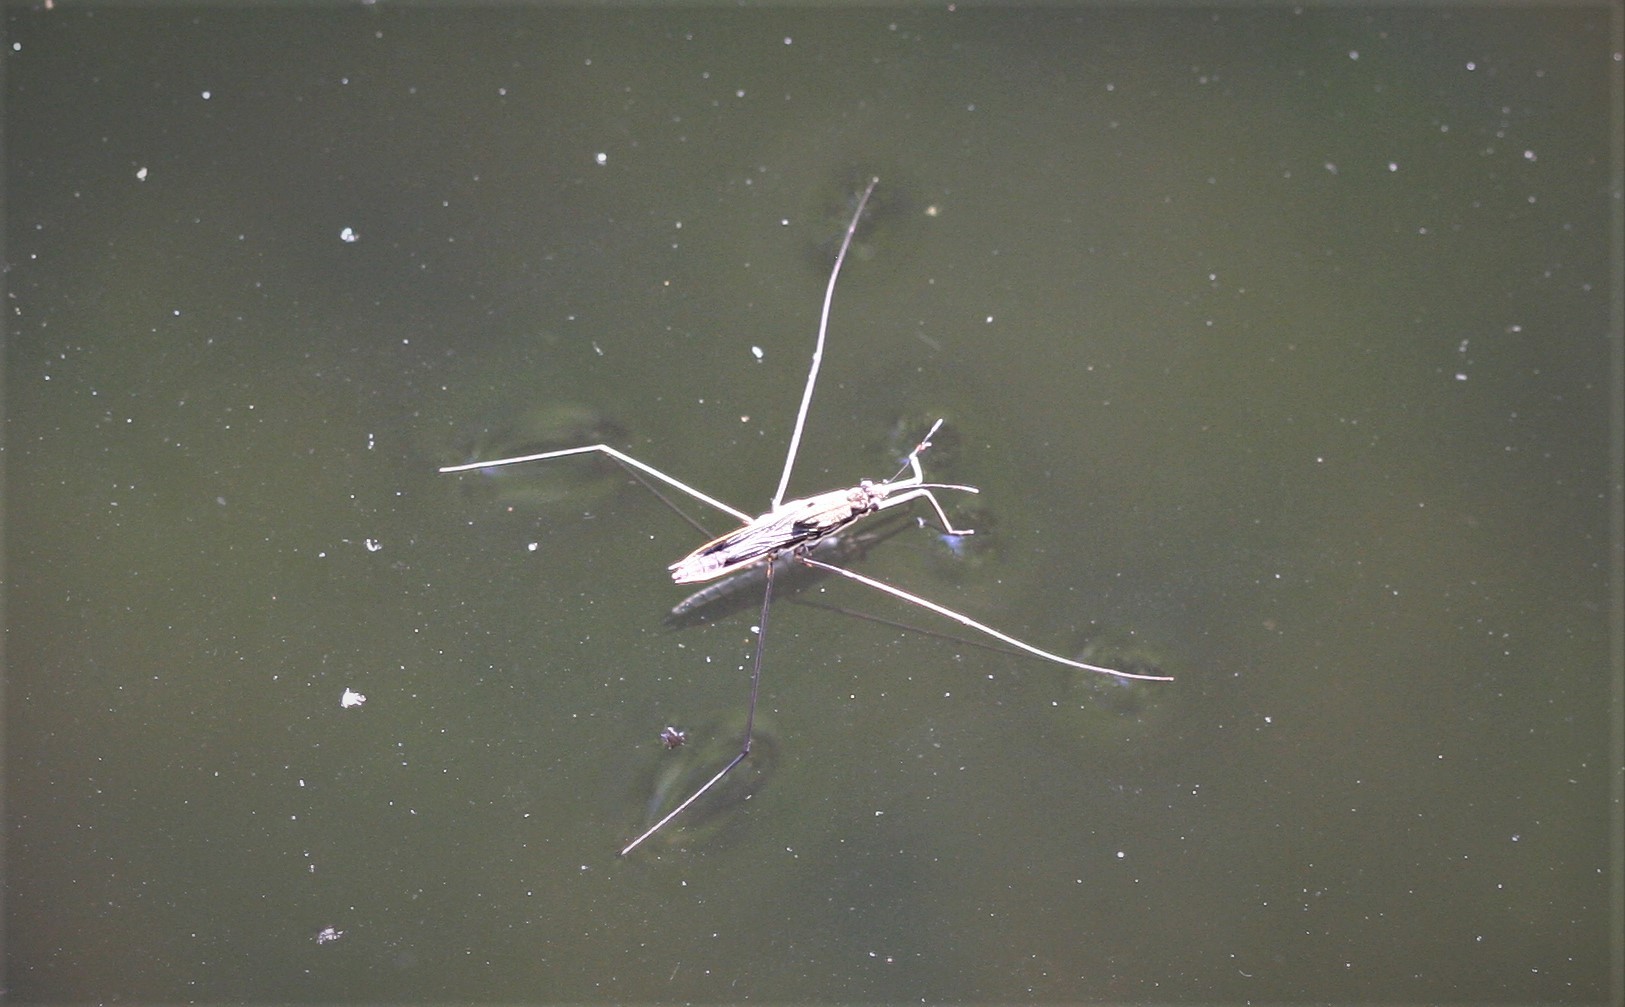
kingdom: Animalia
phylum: Arthropoda
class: Insecta
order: Hemiptera
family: Gerridae
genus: Aquarius
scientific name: Aquarius paludum
